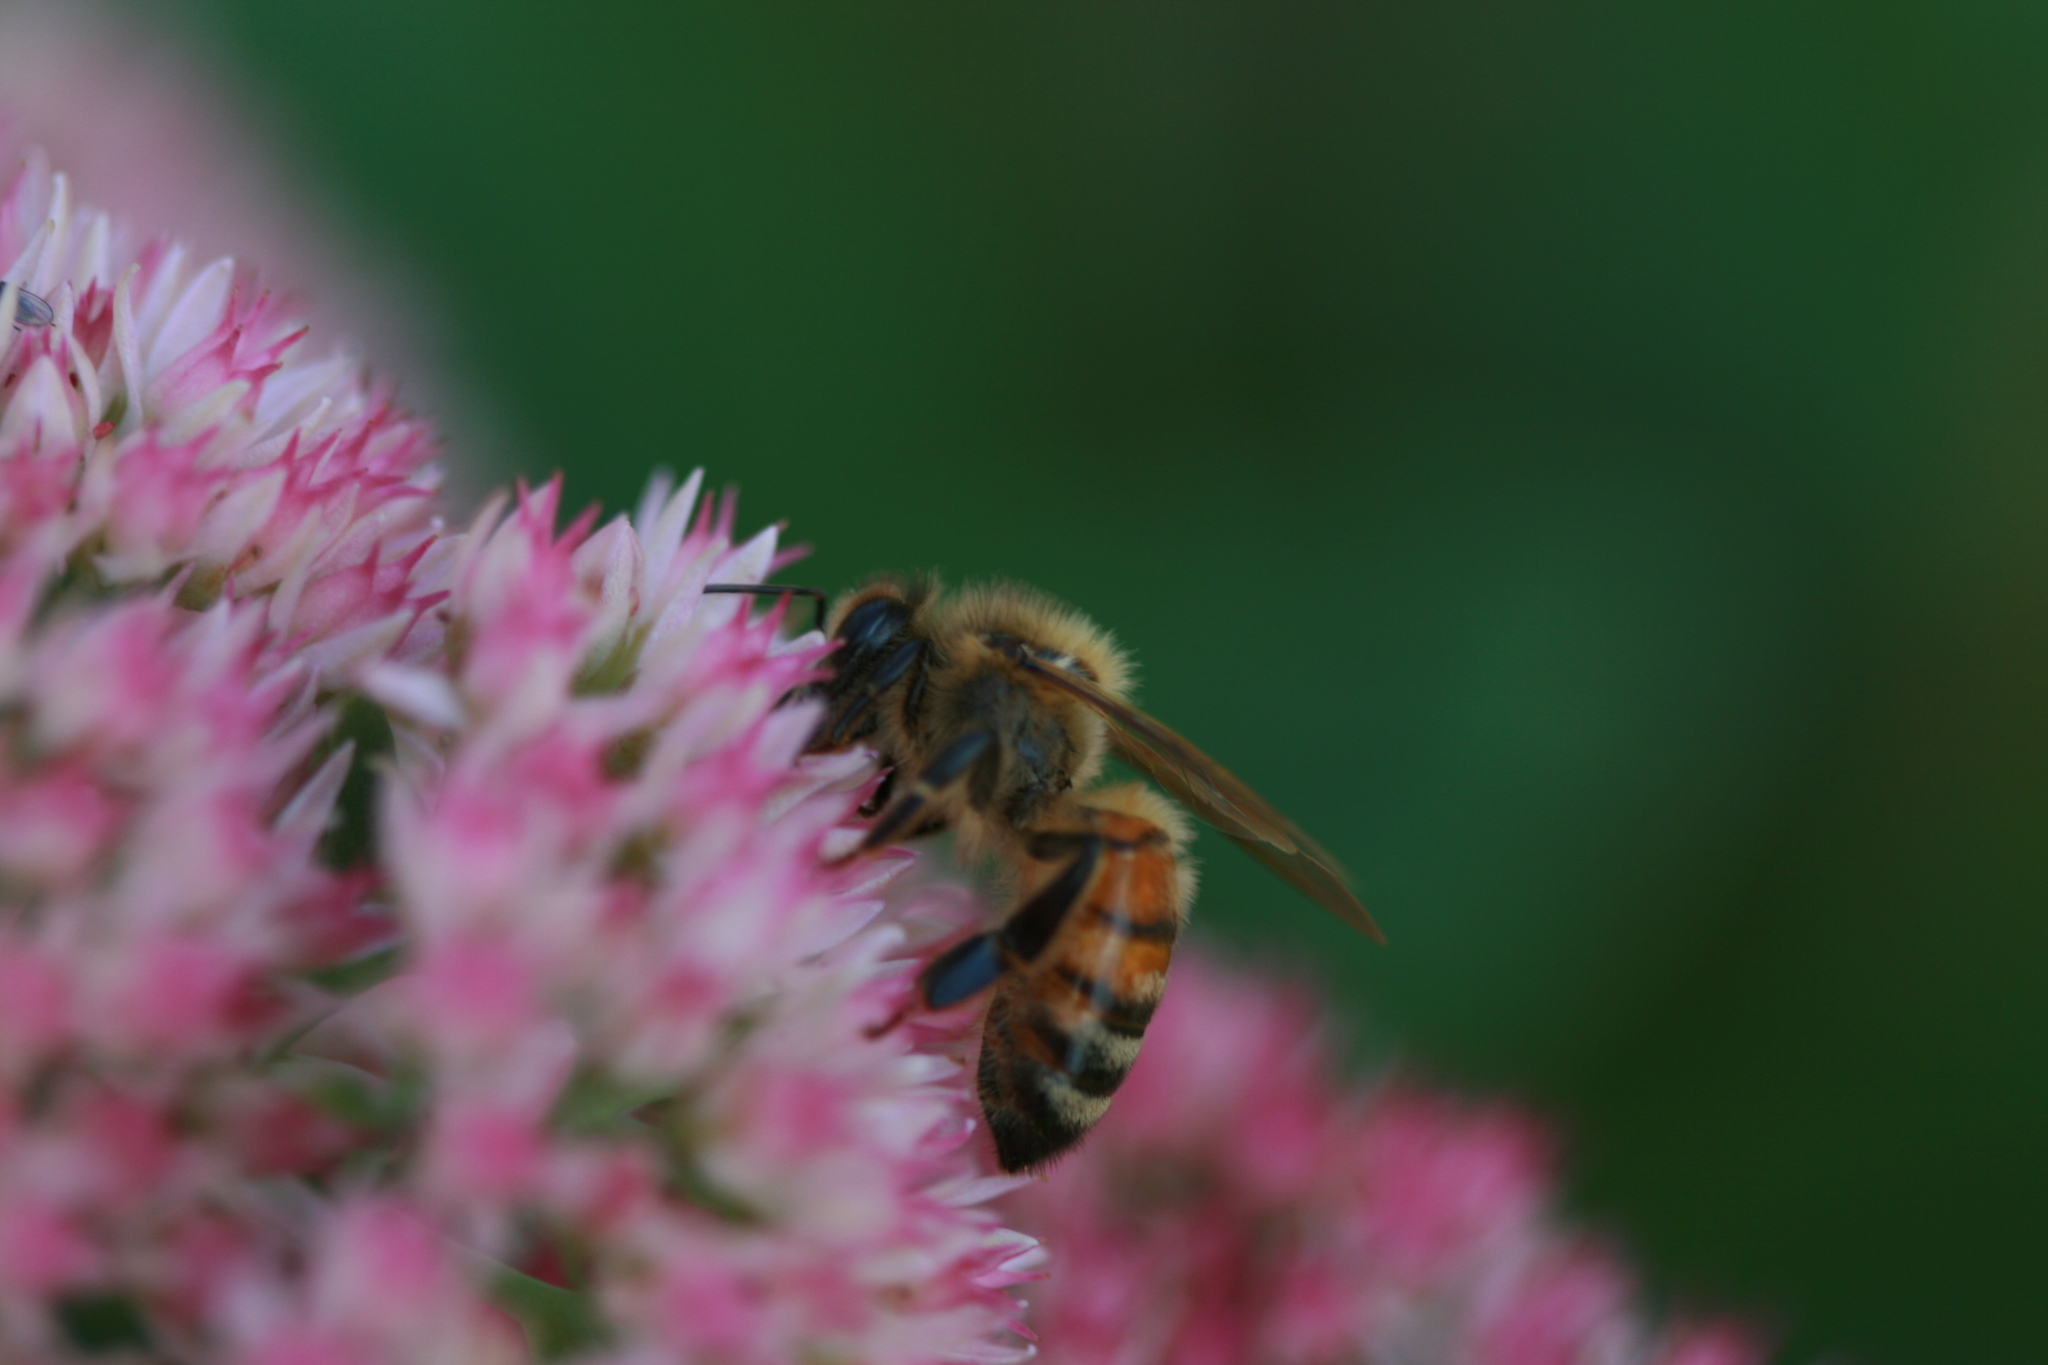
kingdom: Animalia
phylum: Arthropoda
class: Insecta
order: Hymenoptera
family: Apidae
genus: Apis
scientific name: Apis mellifera
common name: Honey bee
